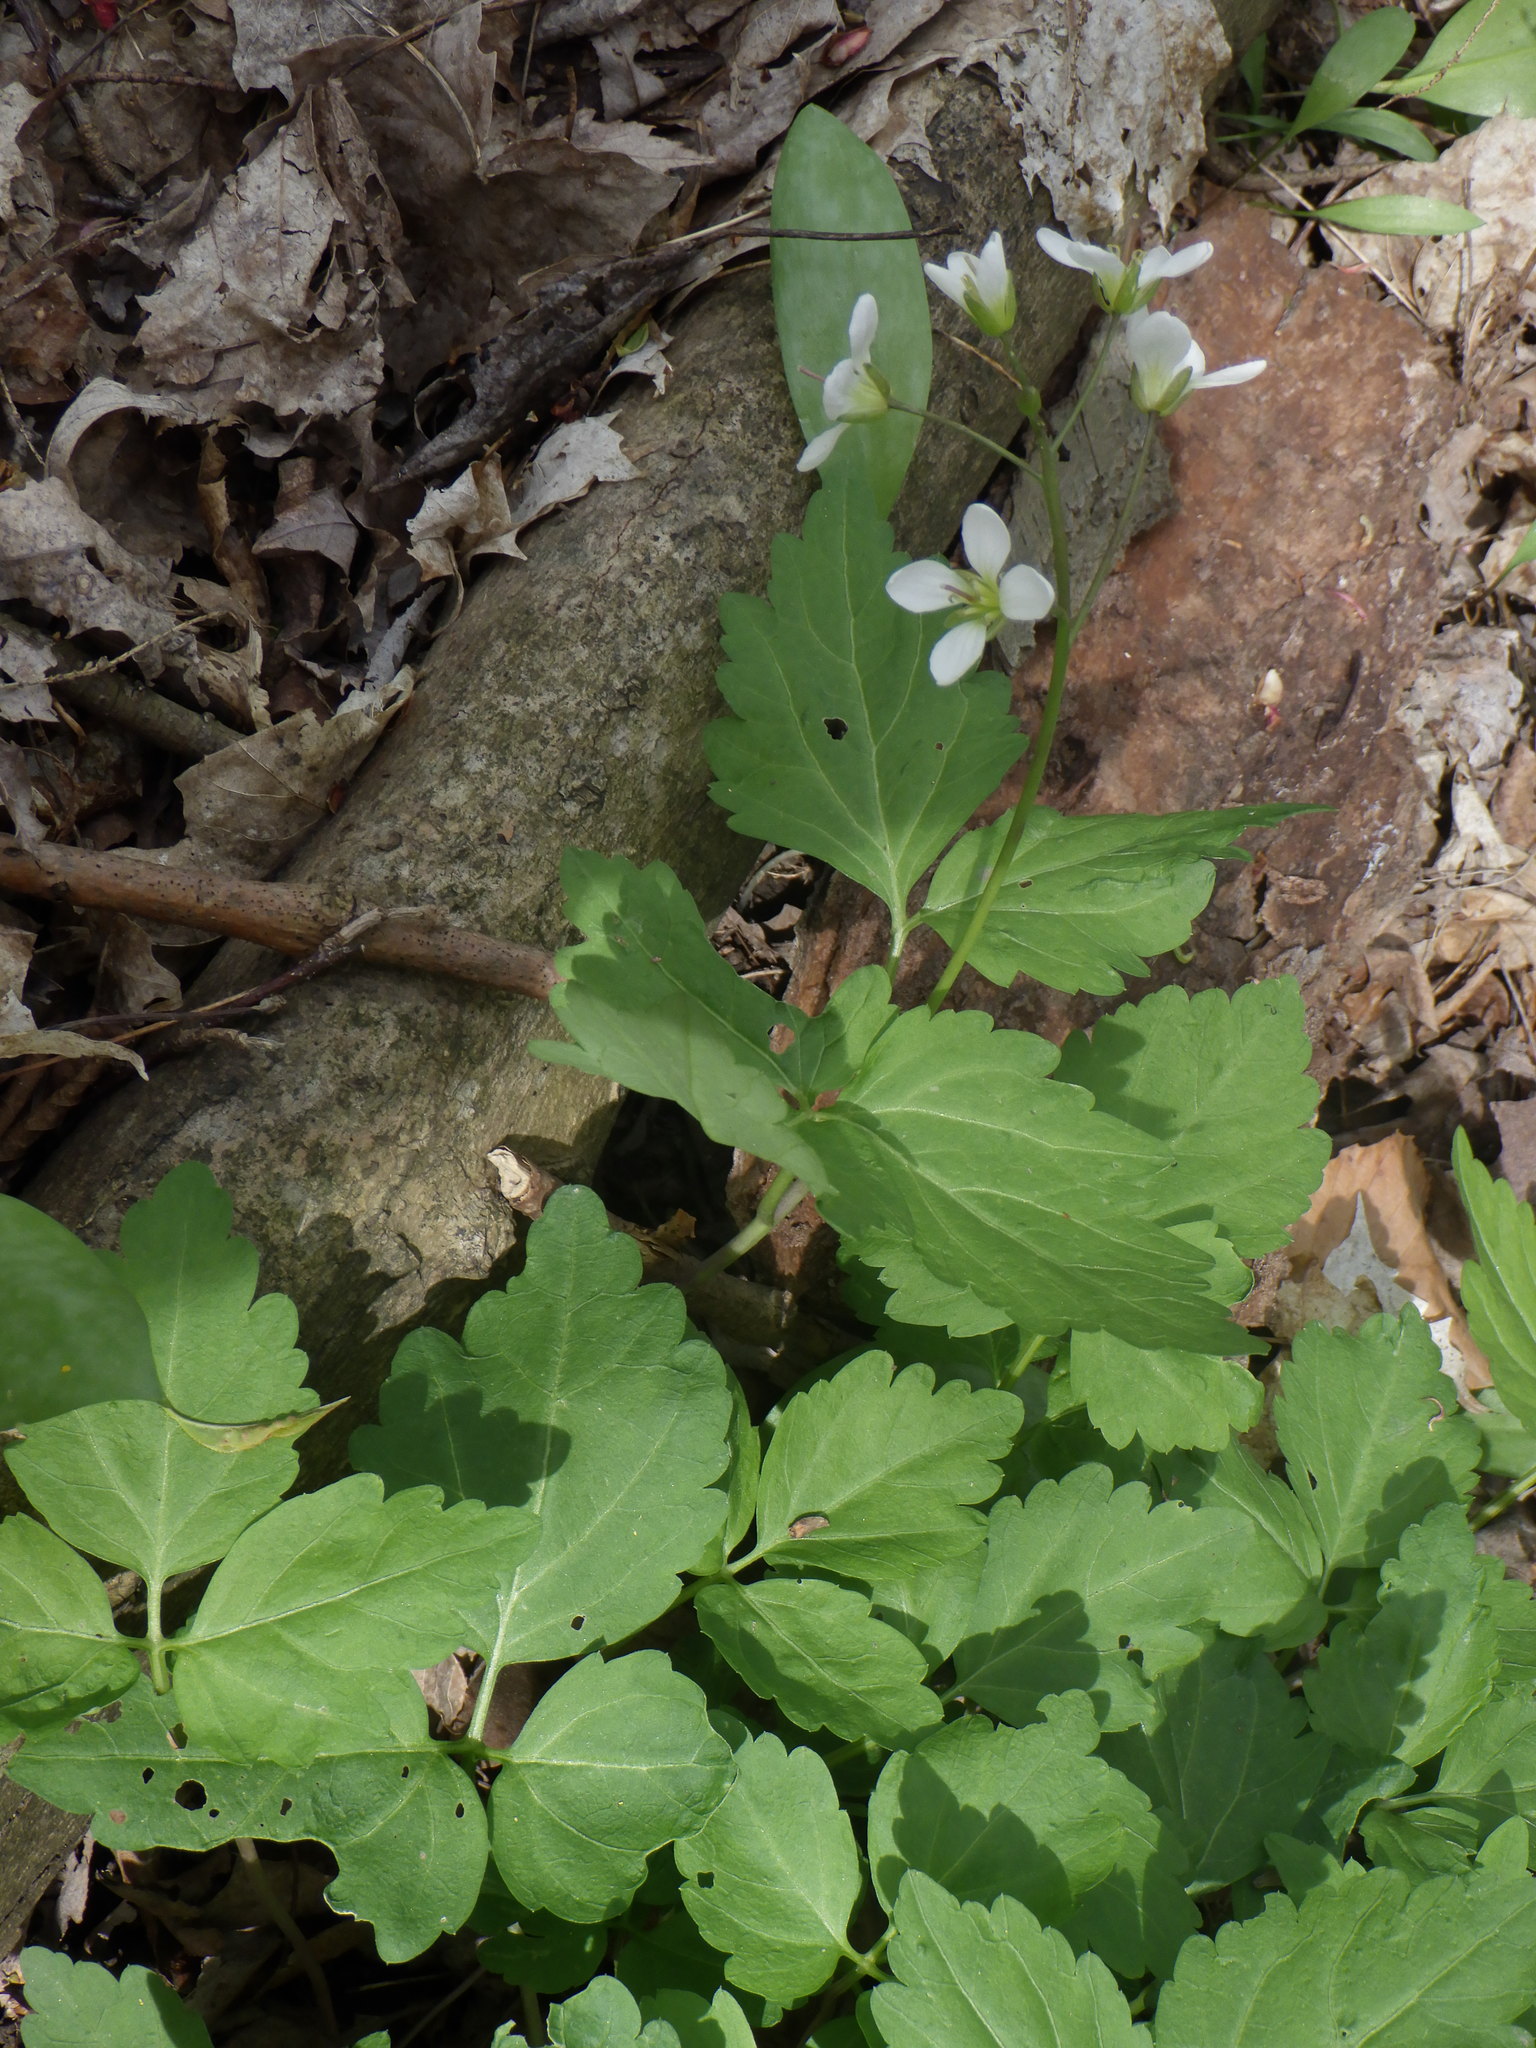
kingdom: Plantae
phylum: Tracheophyta
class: Magnoliopsida
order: Brassicales
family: Brassicaceae
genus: Cardamine
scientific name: Cardamine diphylla
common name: Broad-leaved toothwort
